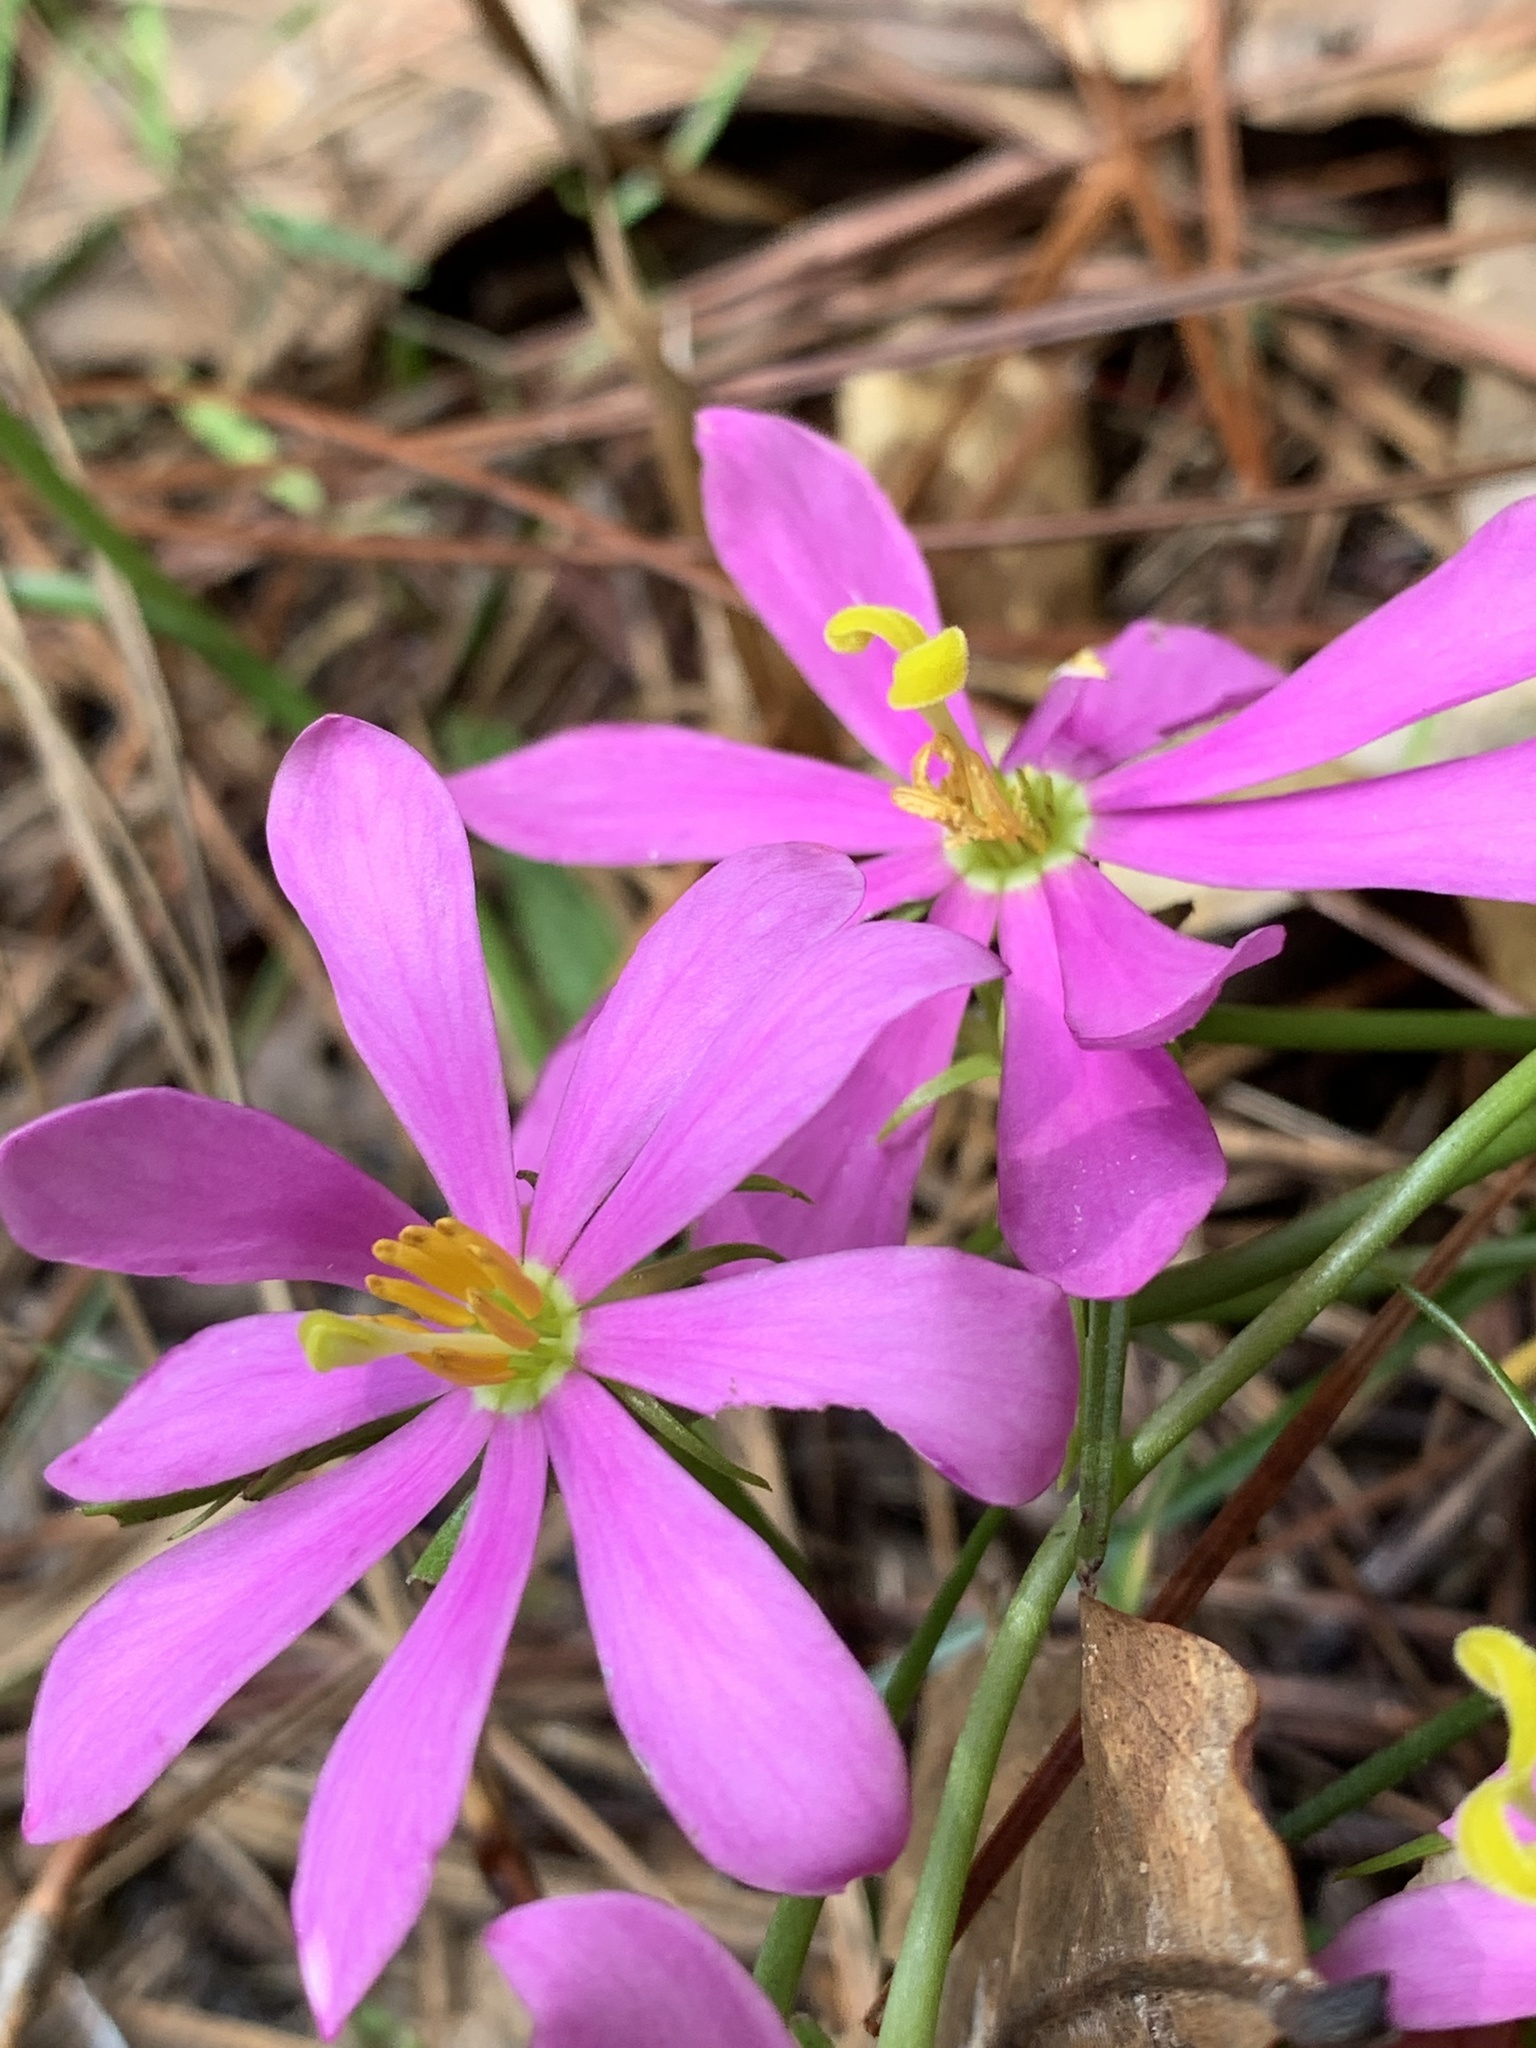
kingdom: Plantae
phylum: Tracheophyta
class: Magnoliopsida
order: Gentianales
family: Gentianaceae
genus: Sabatia
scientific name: Sabatia gentianoides
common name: Pinewoods rose-gentian
